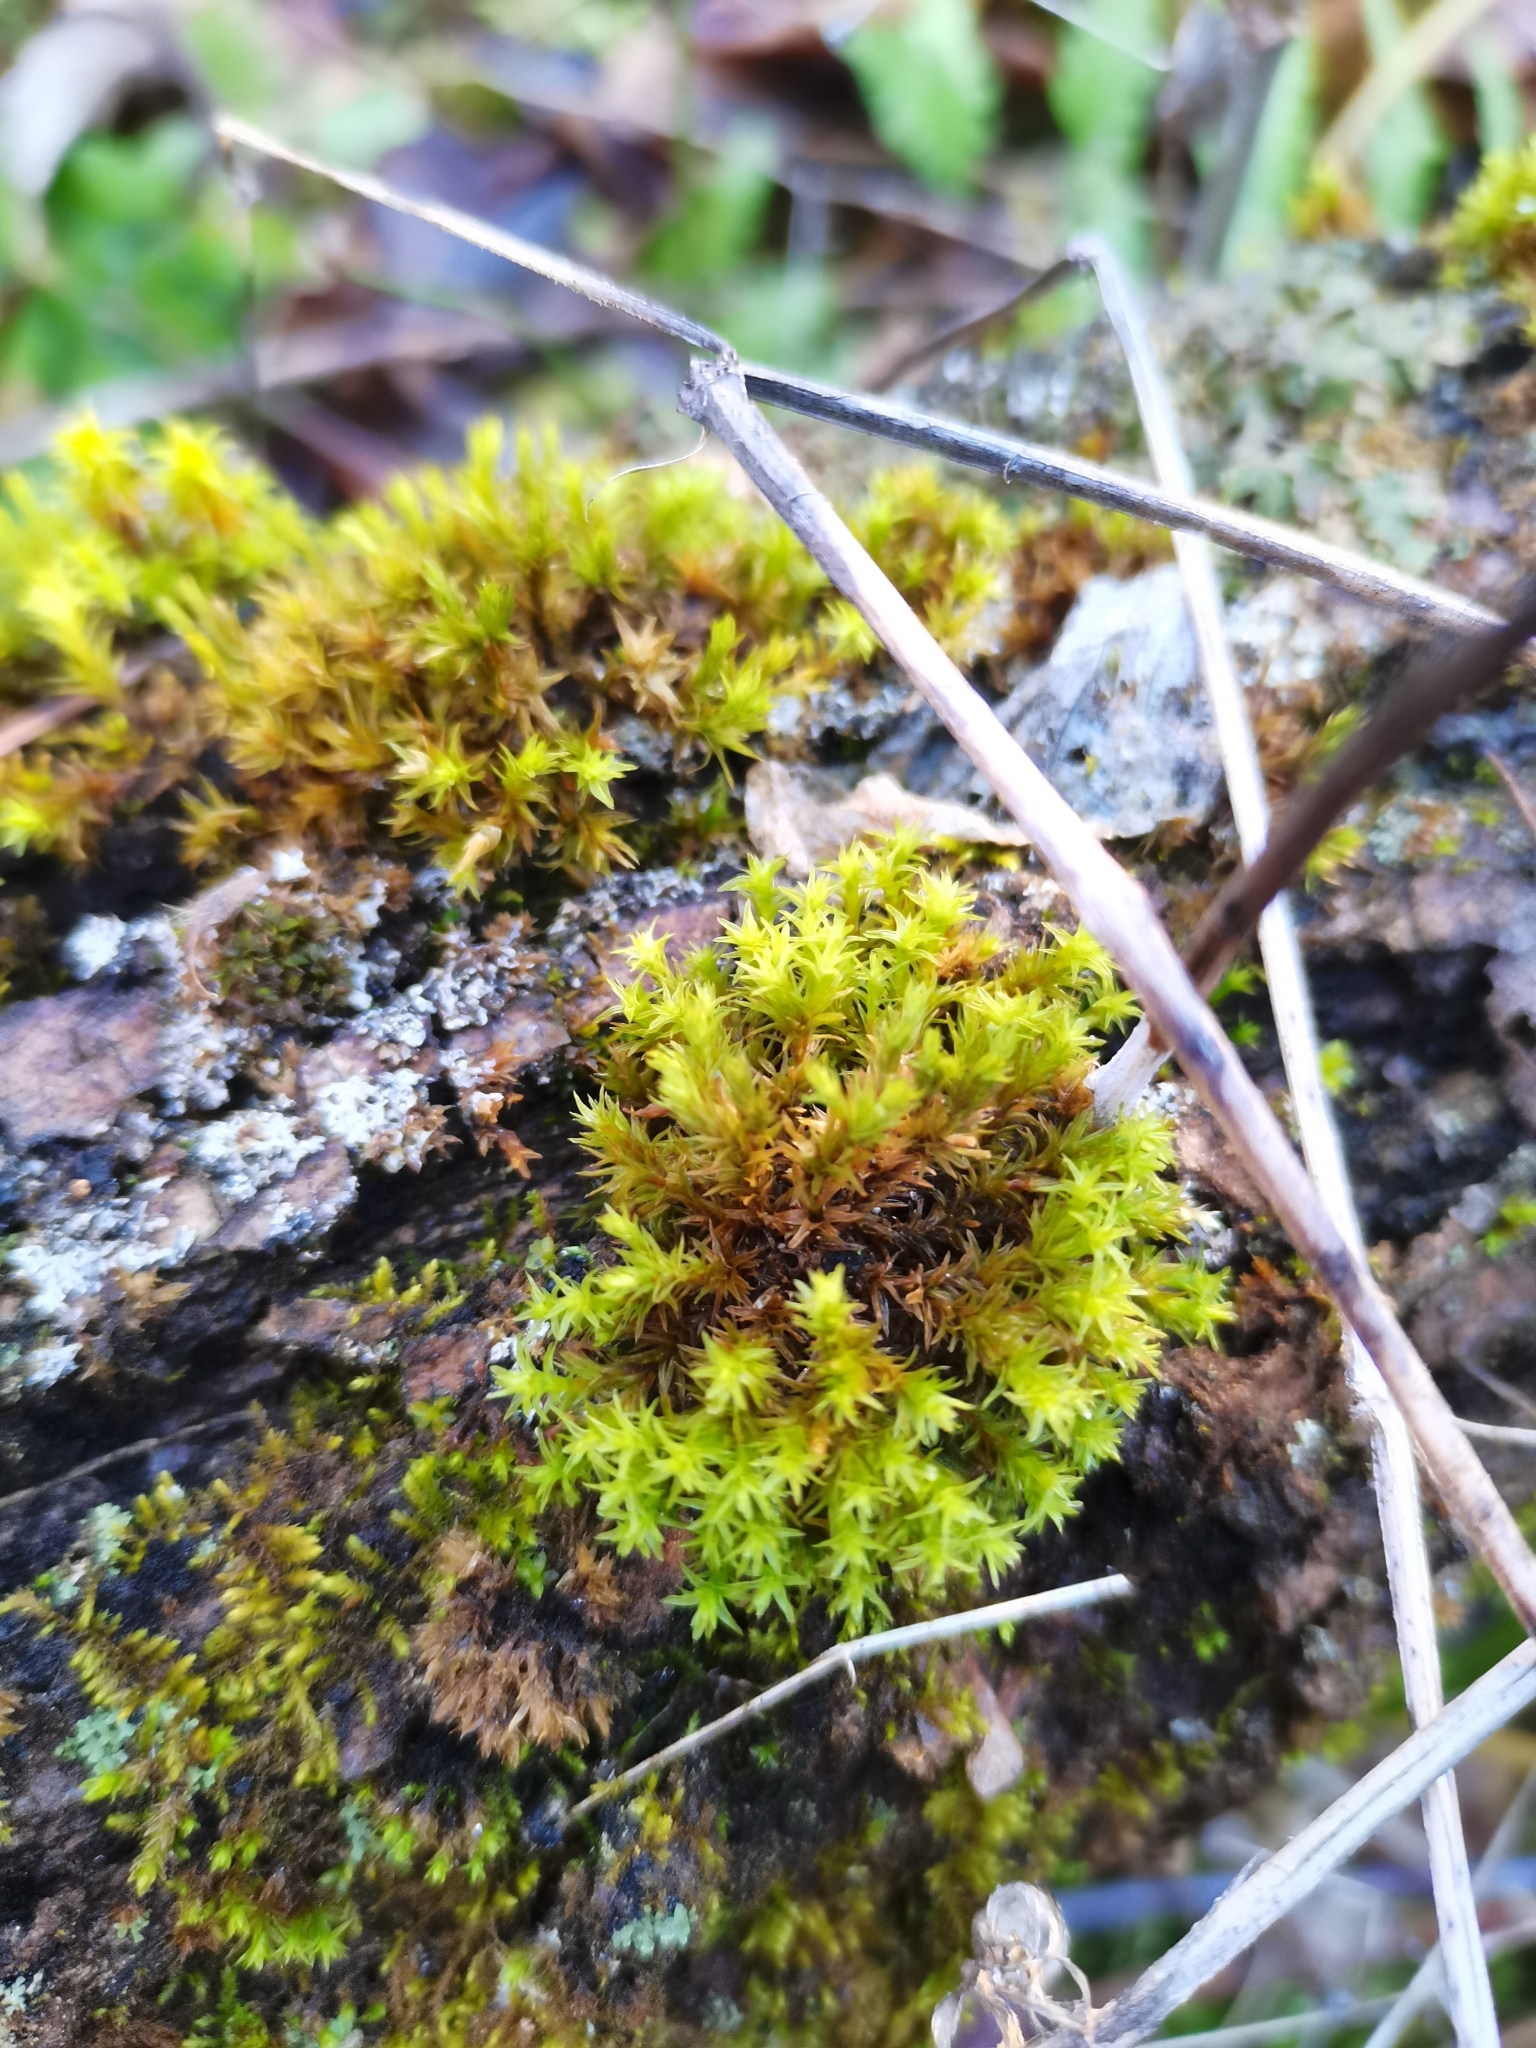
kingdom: Plantae
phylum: Bryophyta
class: Bryopsida
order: Orthotrichales
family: Orthotrichaceae
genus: Lewinskya
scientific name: Lewinskya affinis
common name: Wood bristle-moss
